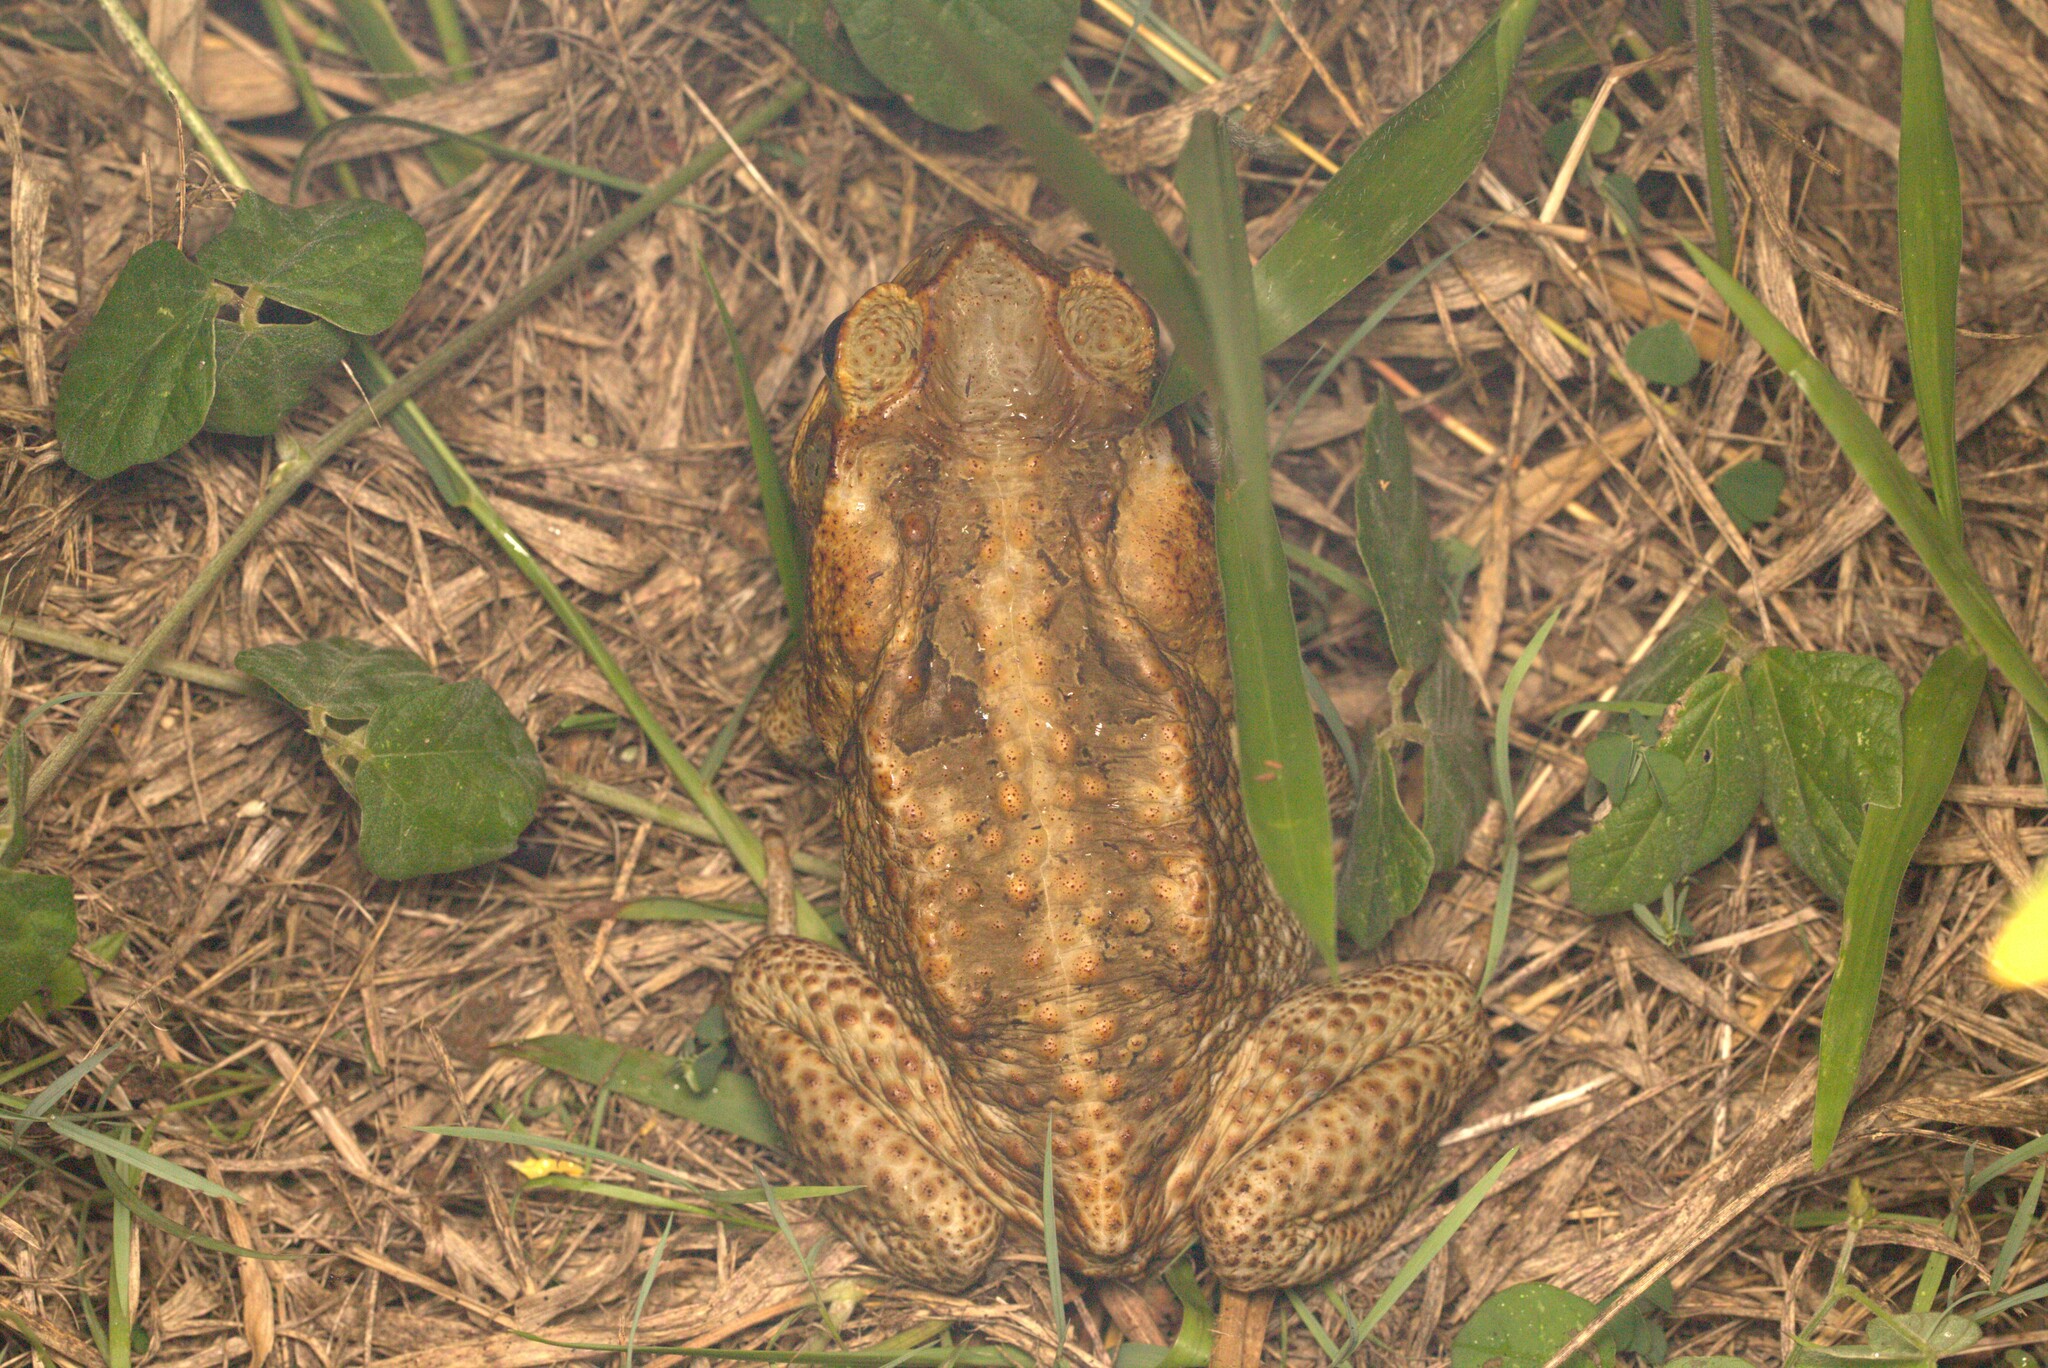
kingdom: Animalia
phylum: Chordata
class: Amphibia
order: Anura
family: Bufonidae
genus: Rhinella
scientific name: Rhinella marina
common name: Cane toad
